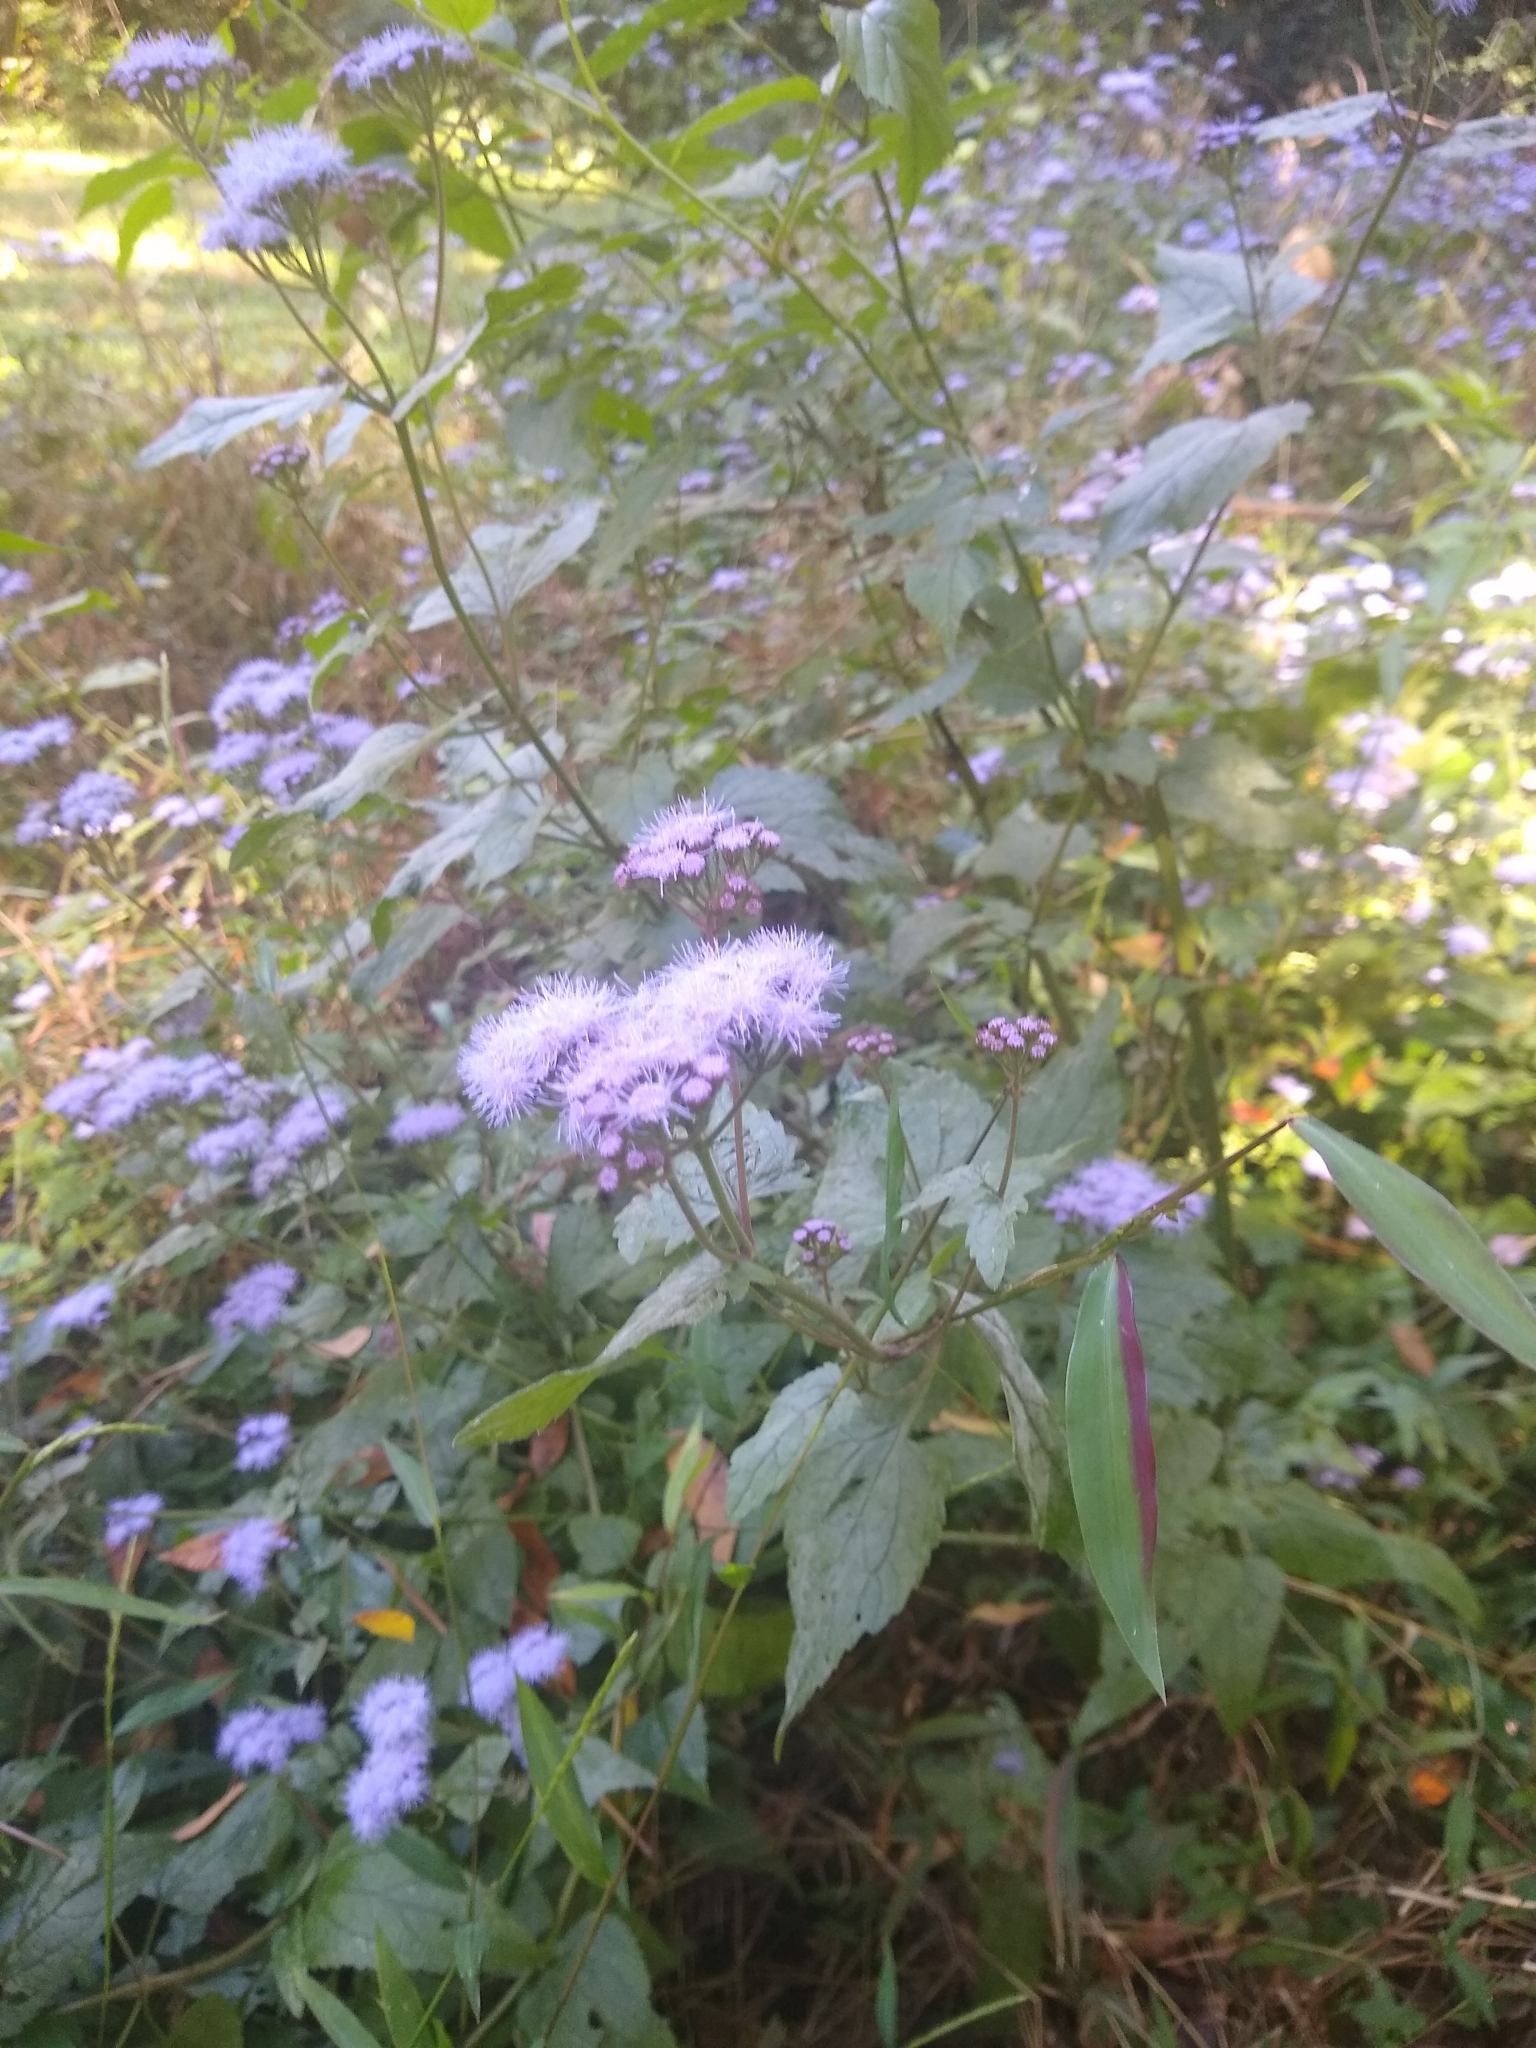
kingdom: Plantae
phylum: Tracheophyta
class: Magnoliopsida
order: Asterales
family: Asteraceae
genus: Conoclinium
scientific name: Conoclinium coelestinum
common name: Blue mistflower
